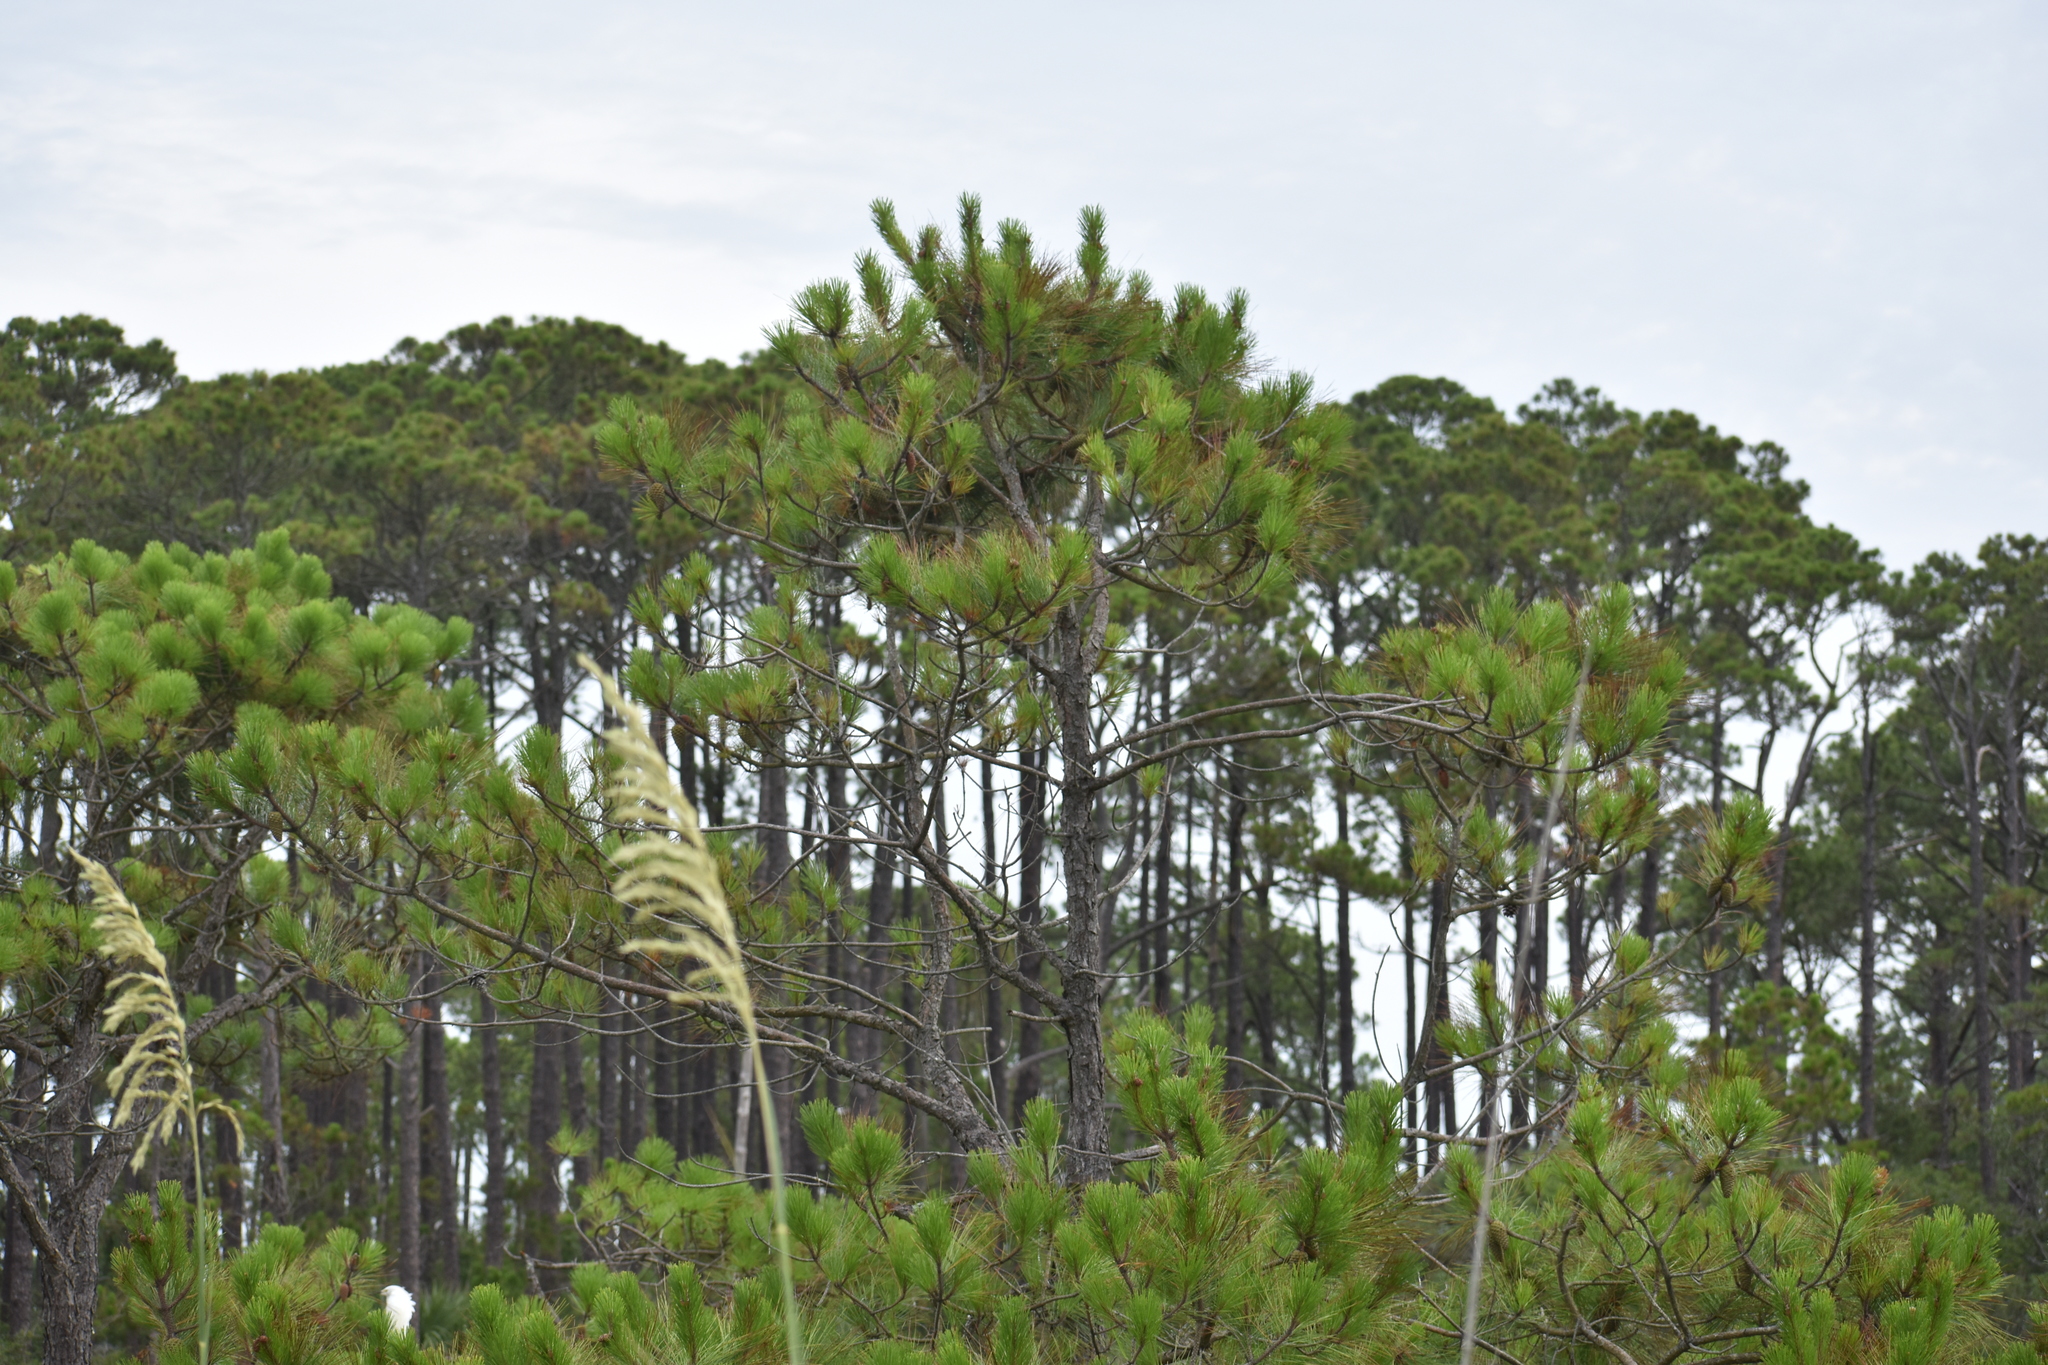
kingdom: Plantae
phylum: Tracheophyta
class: Pinopsida
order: Pinales
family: Pinaceae
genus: Pinus
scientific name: Pinus elliottii
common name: Slash pine
